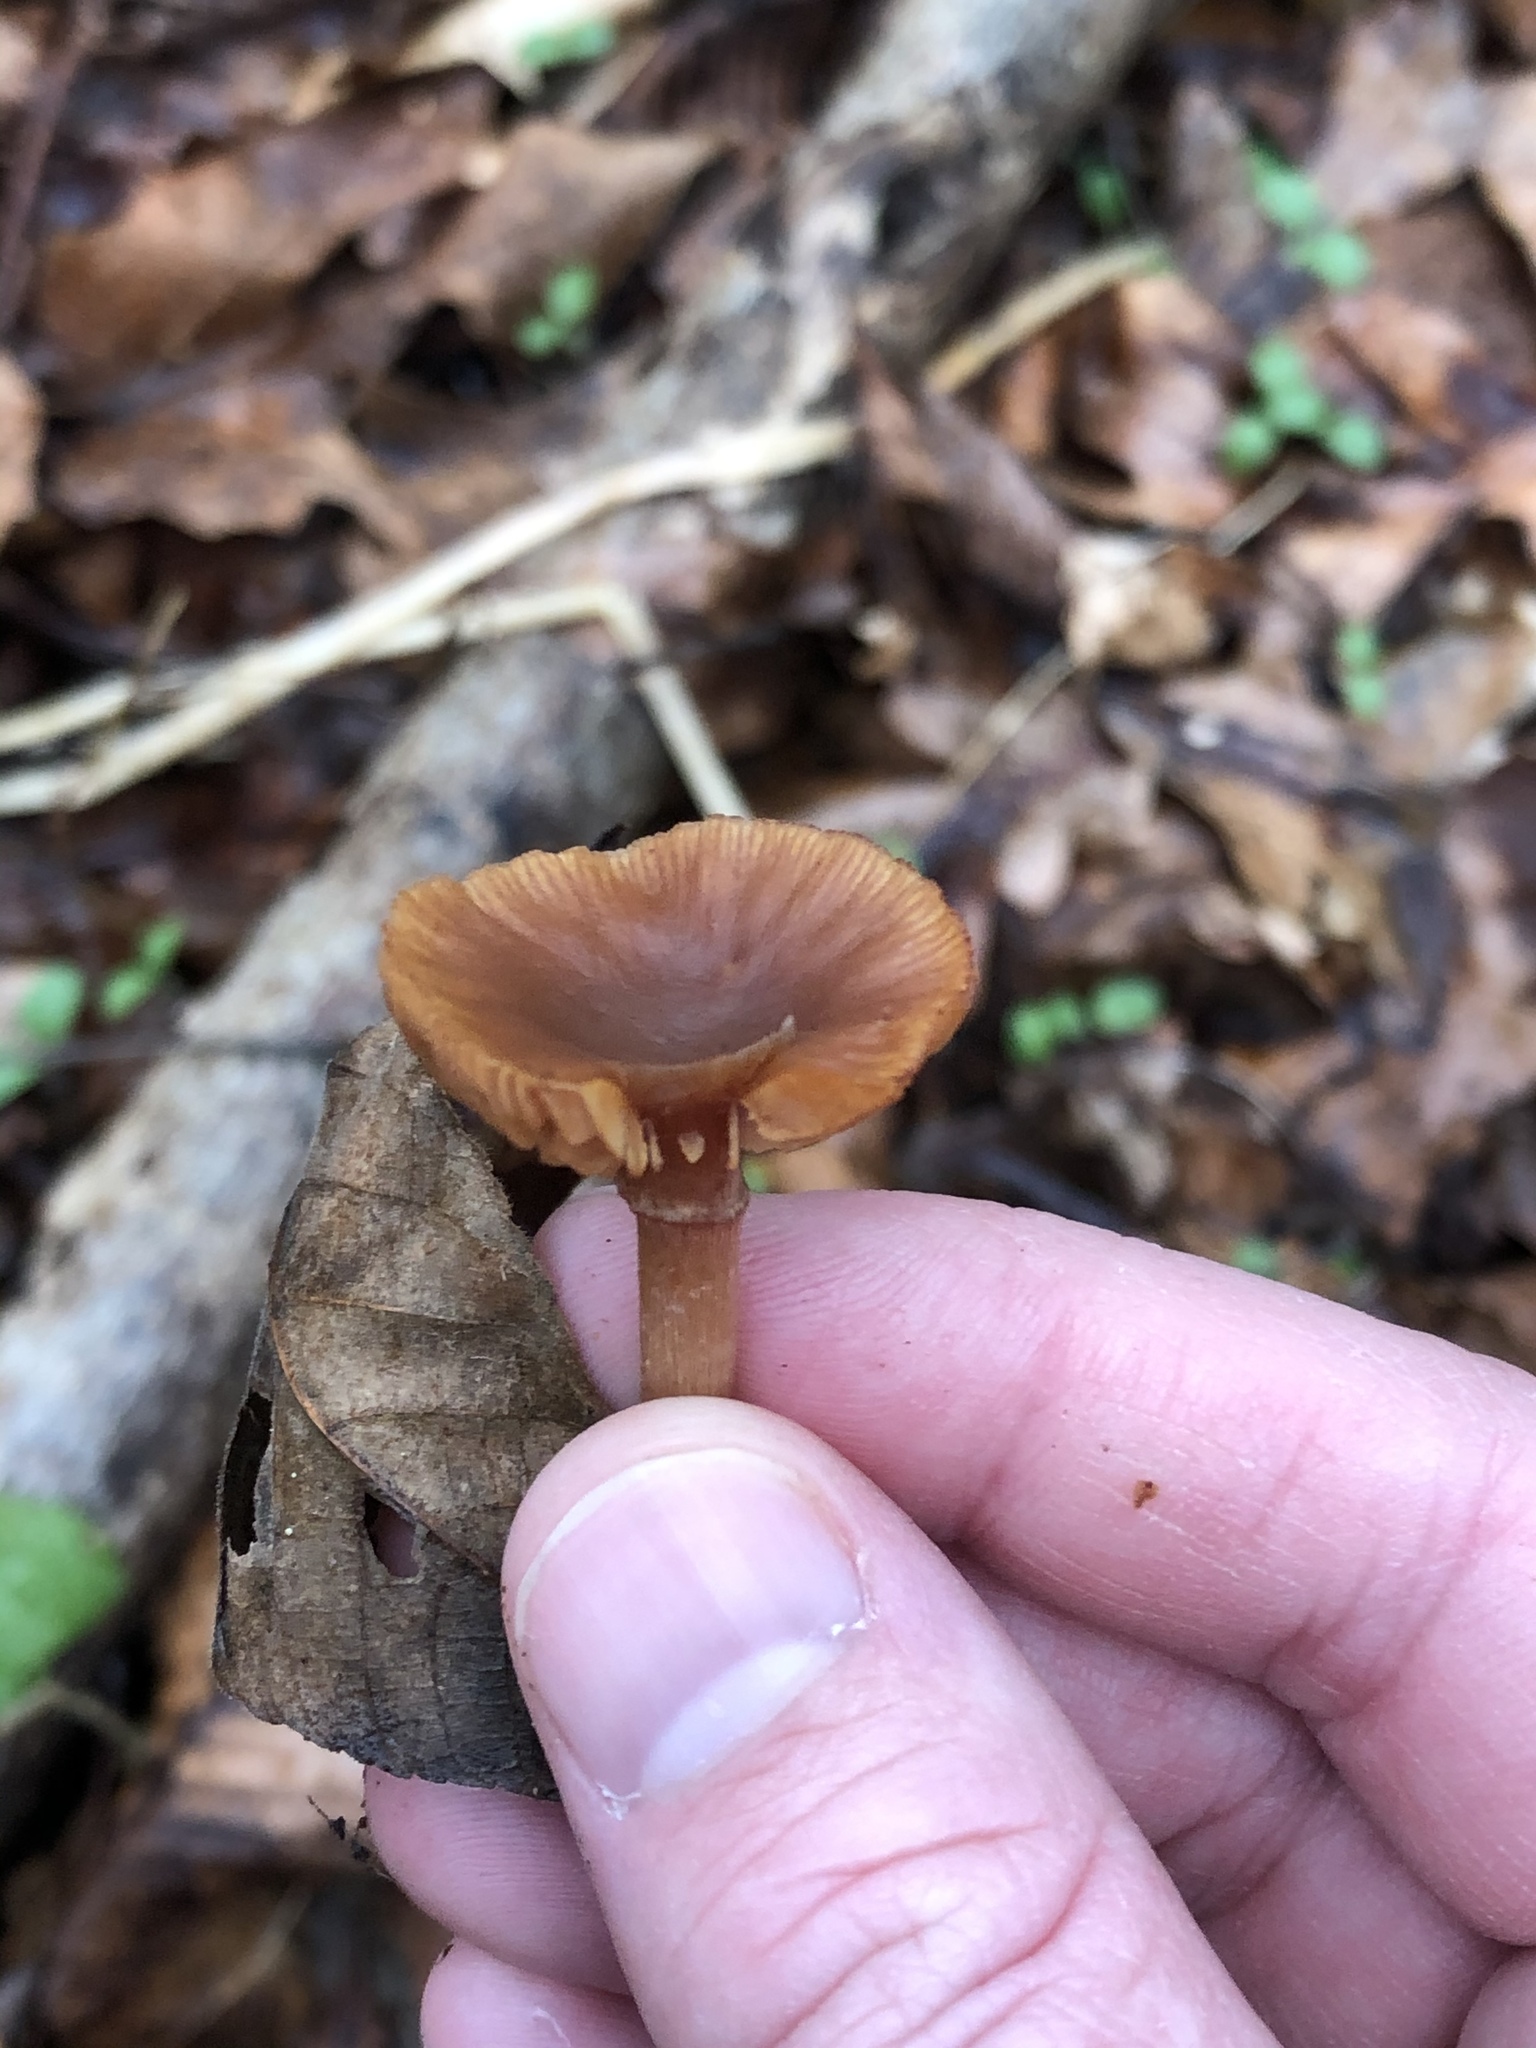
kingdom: Fungi
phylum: Basidiomycota
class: Agaricomycetes
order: Agaricales
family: Tubariaceae
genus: Tubaria
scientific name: Tubaria furfuracea
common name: Scurfy twiglet
